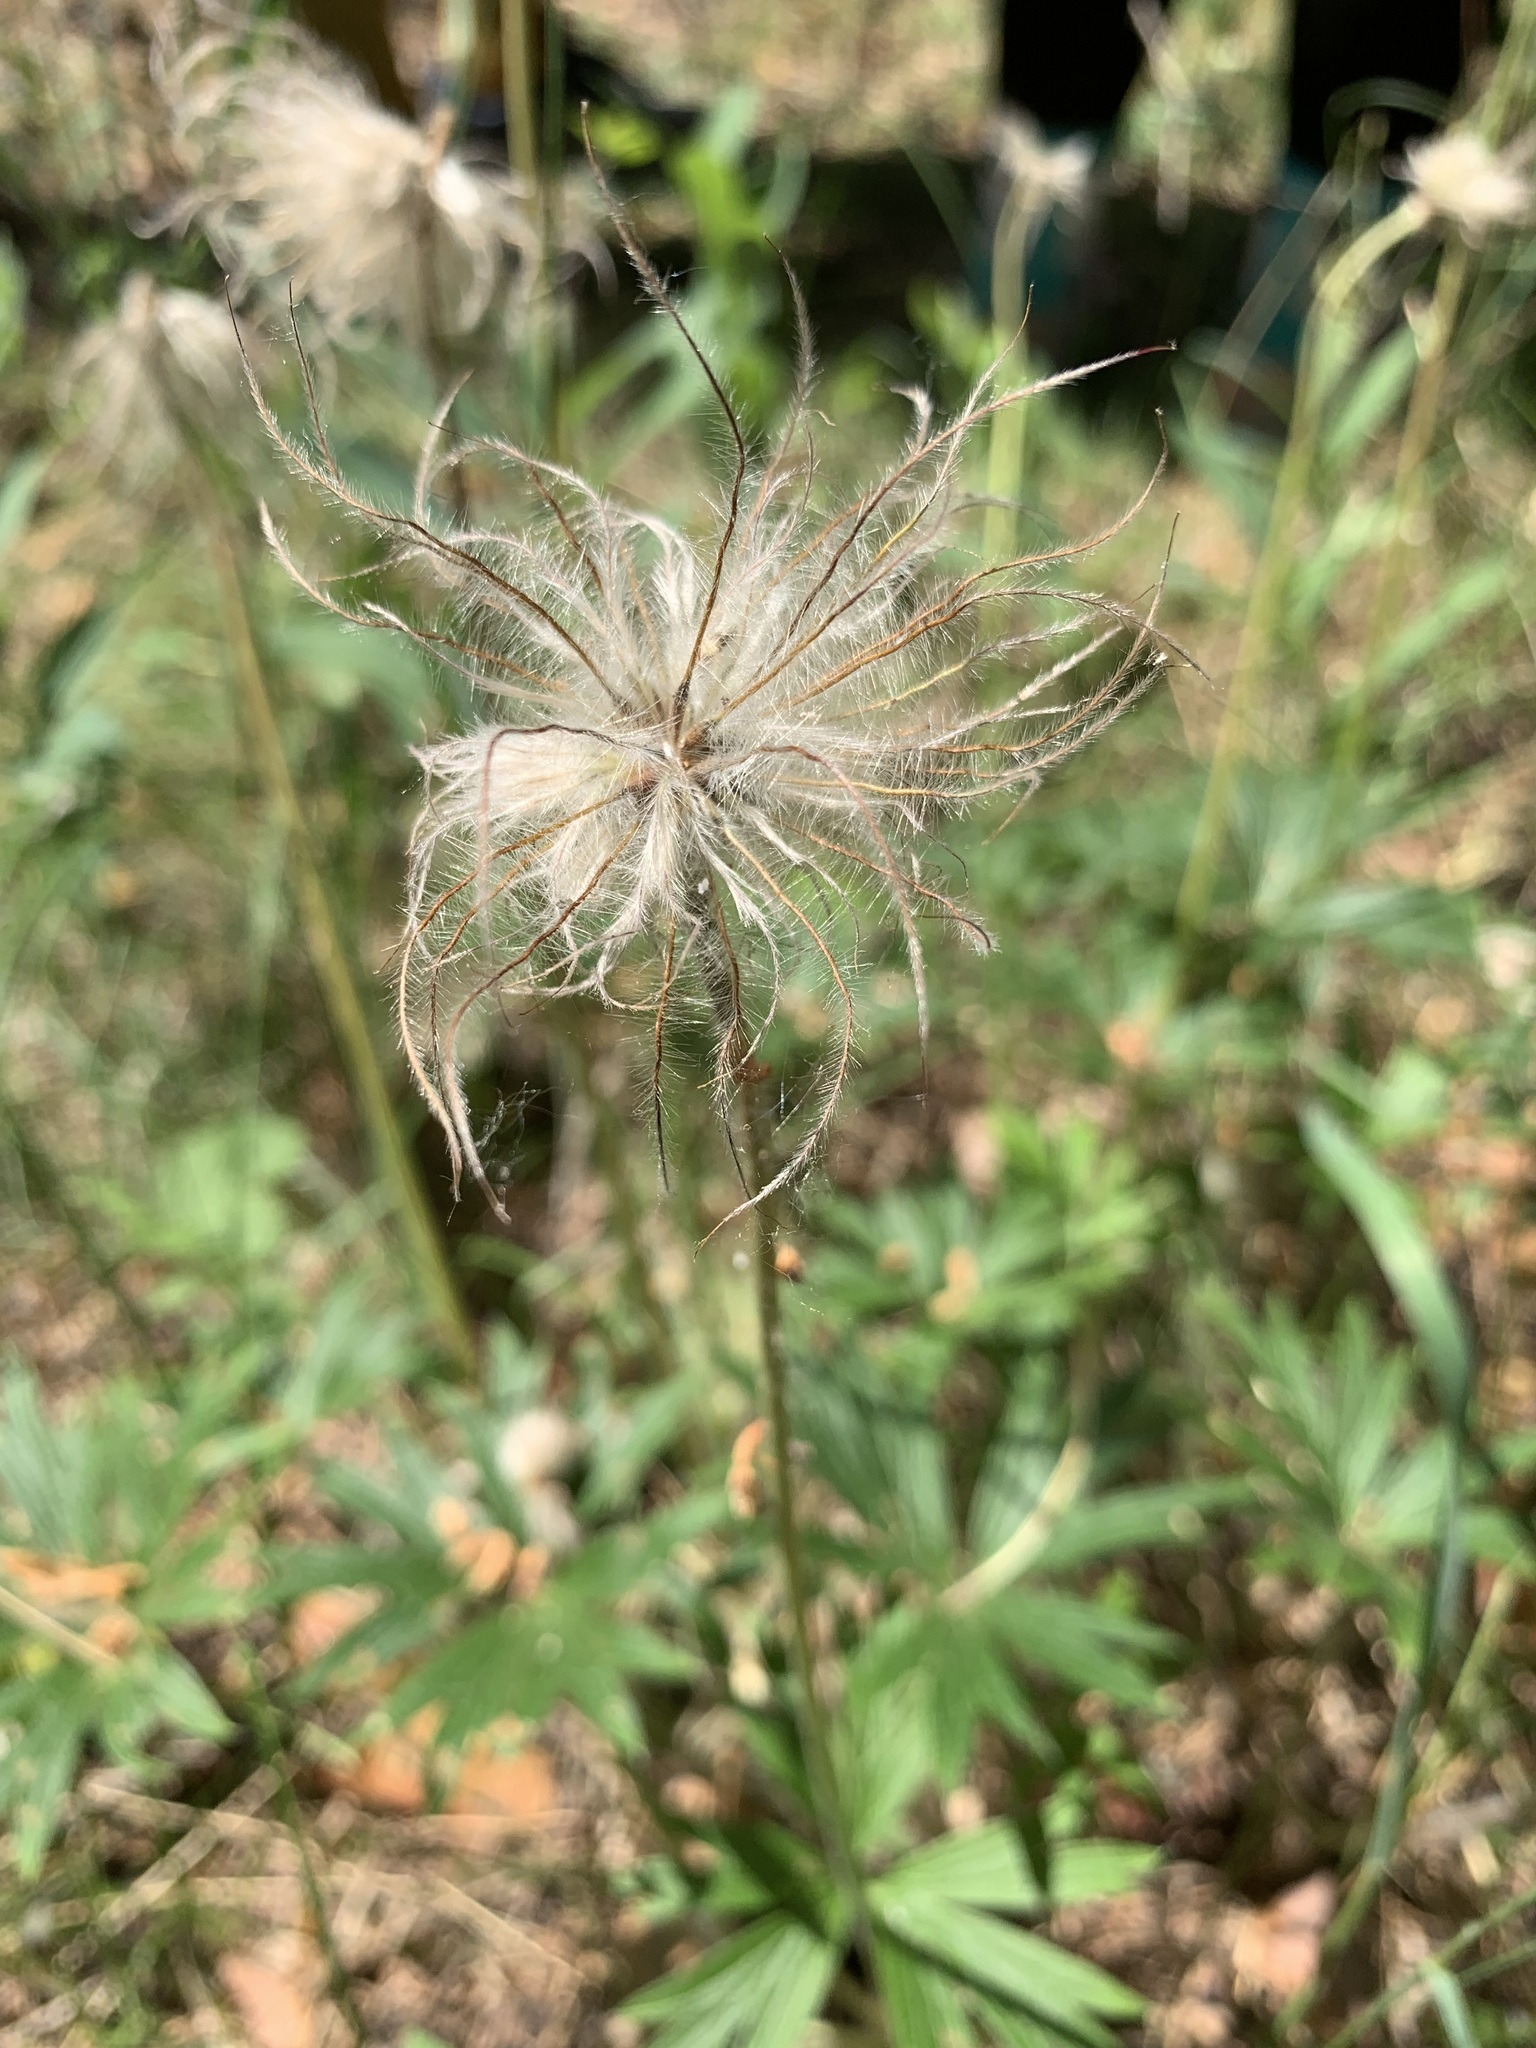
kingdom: Plantae
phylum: Tracheophyta
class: Magnoliopsida
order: Ranunculales
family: Ranunculaceae
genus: Pulsatilla
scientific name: Pulsatilla patens
